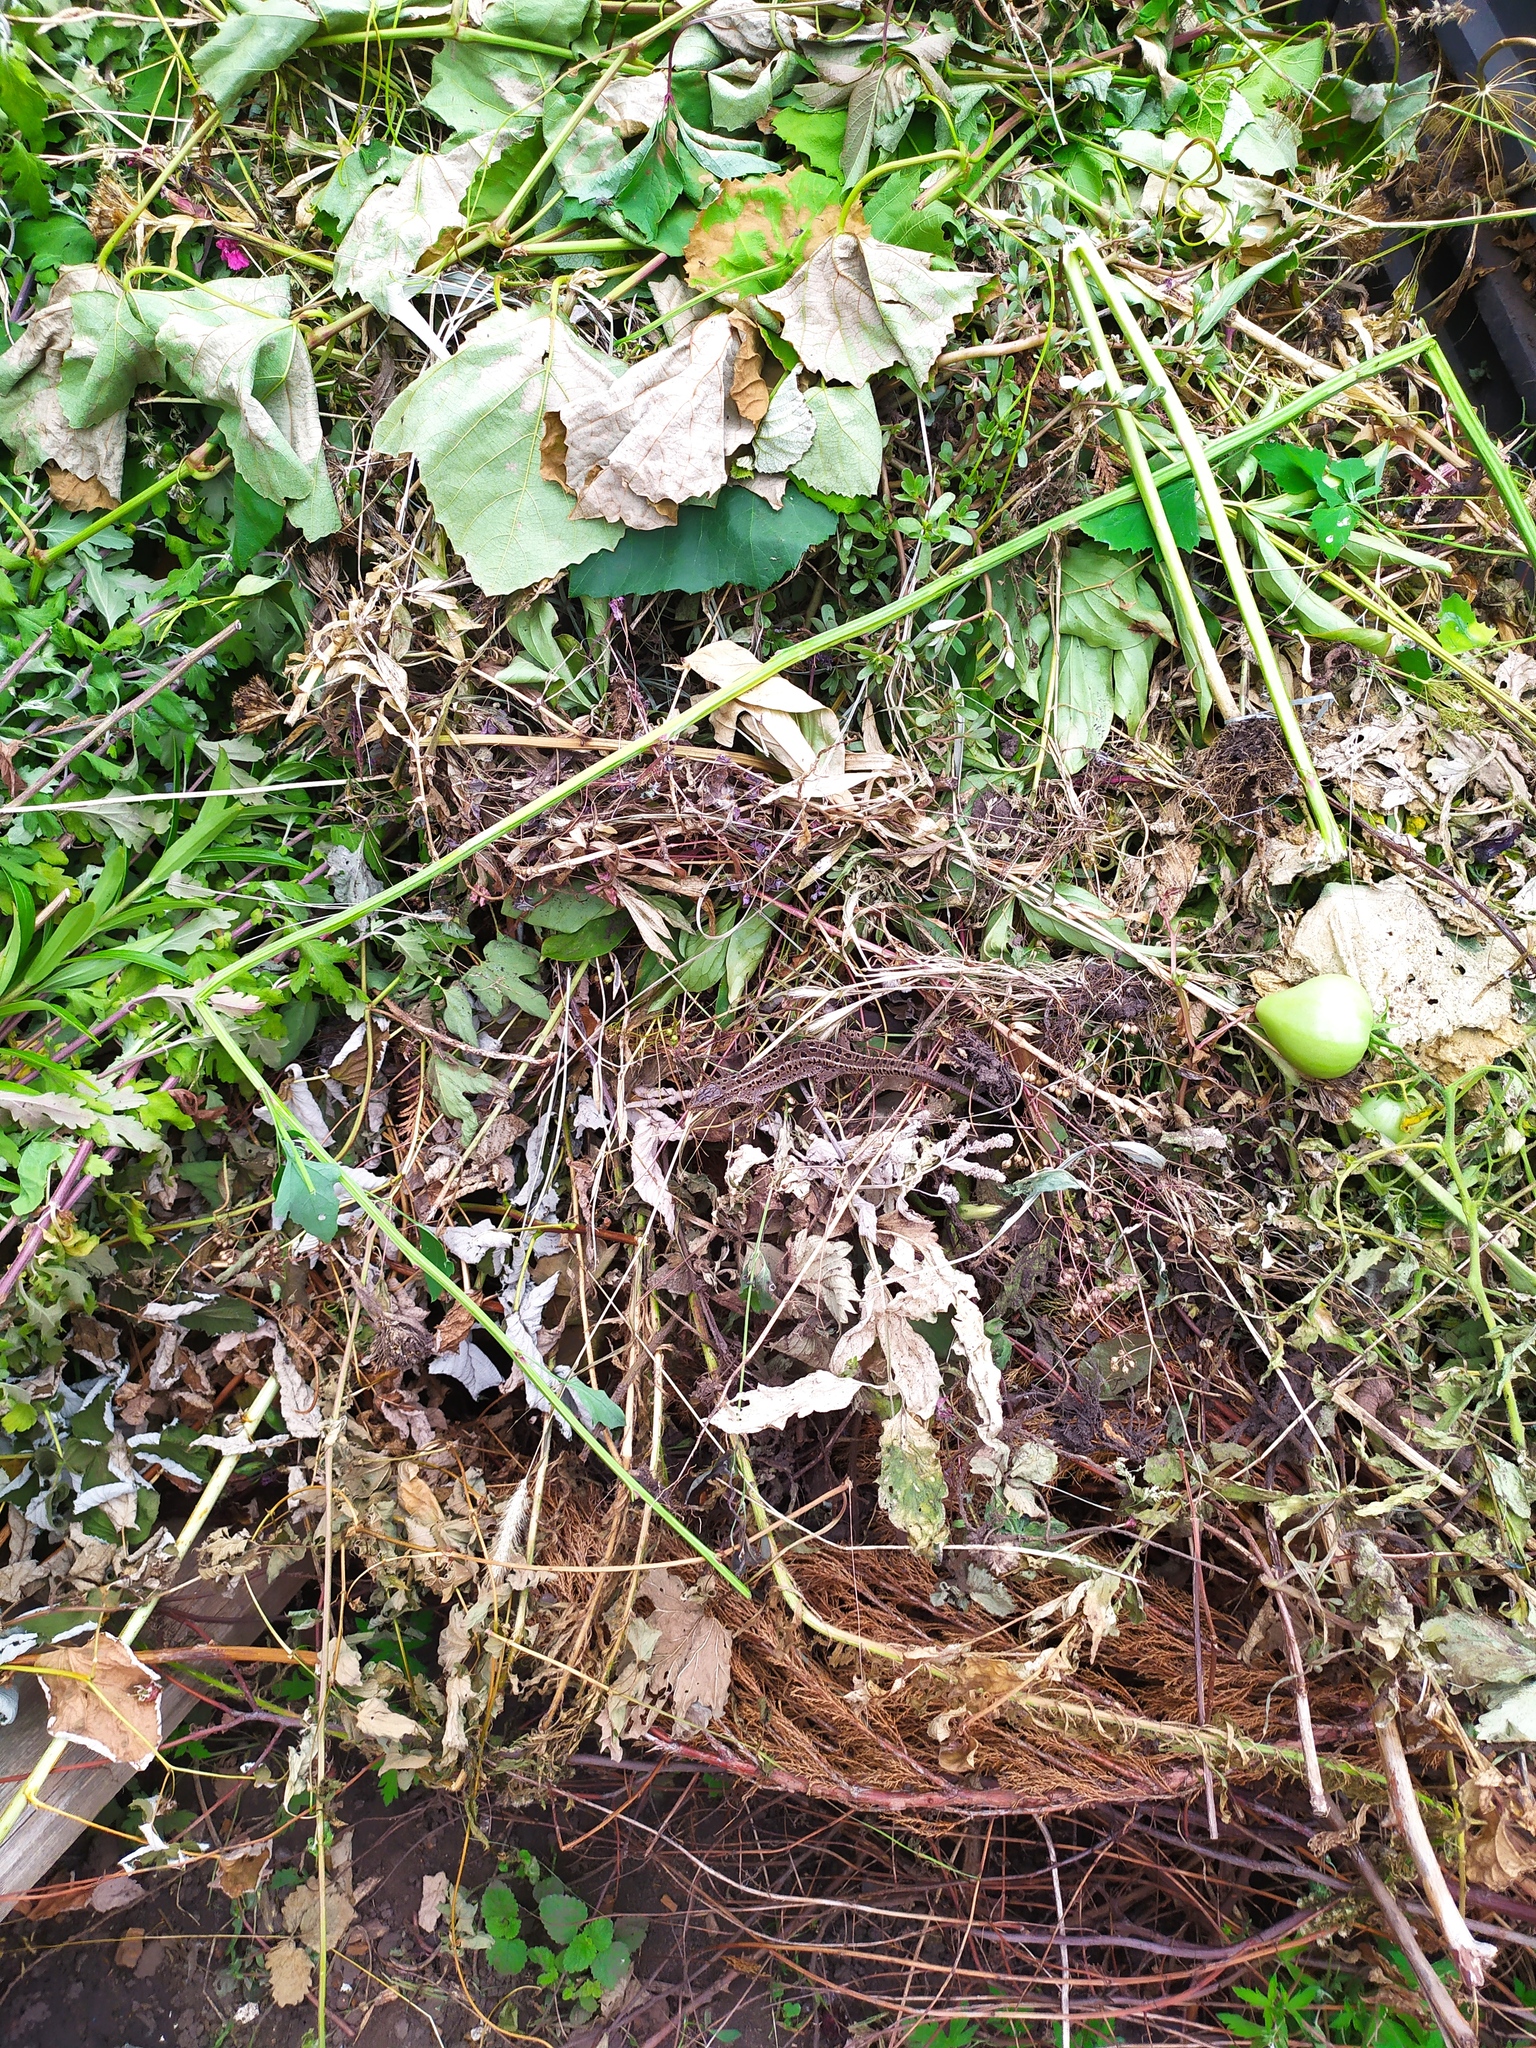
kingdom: Animalia
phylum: Chordata
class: Squamata
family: Lacertidae
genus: Lacerta
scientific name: Lacerta agilis
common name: Sand lizard
